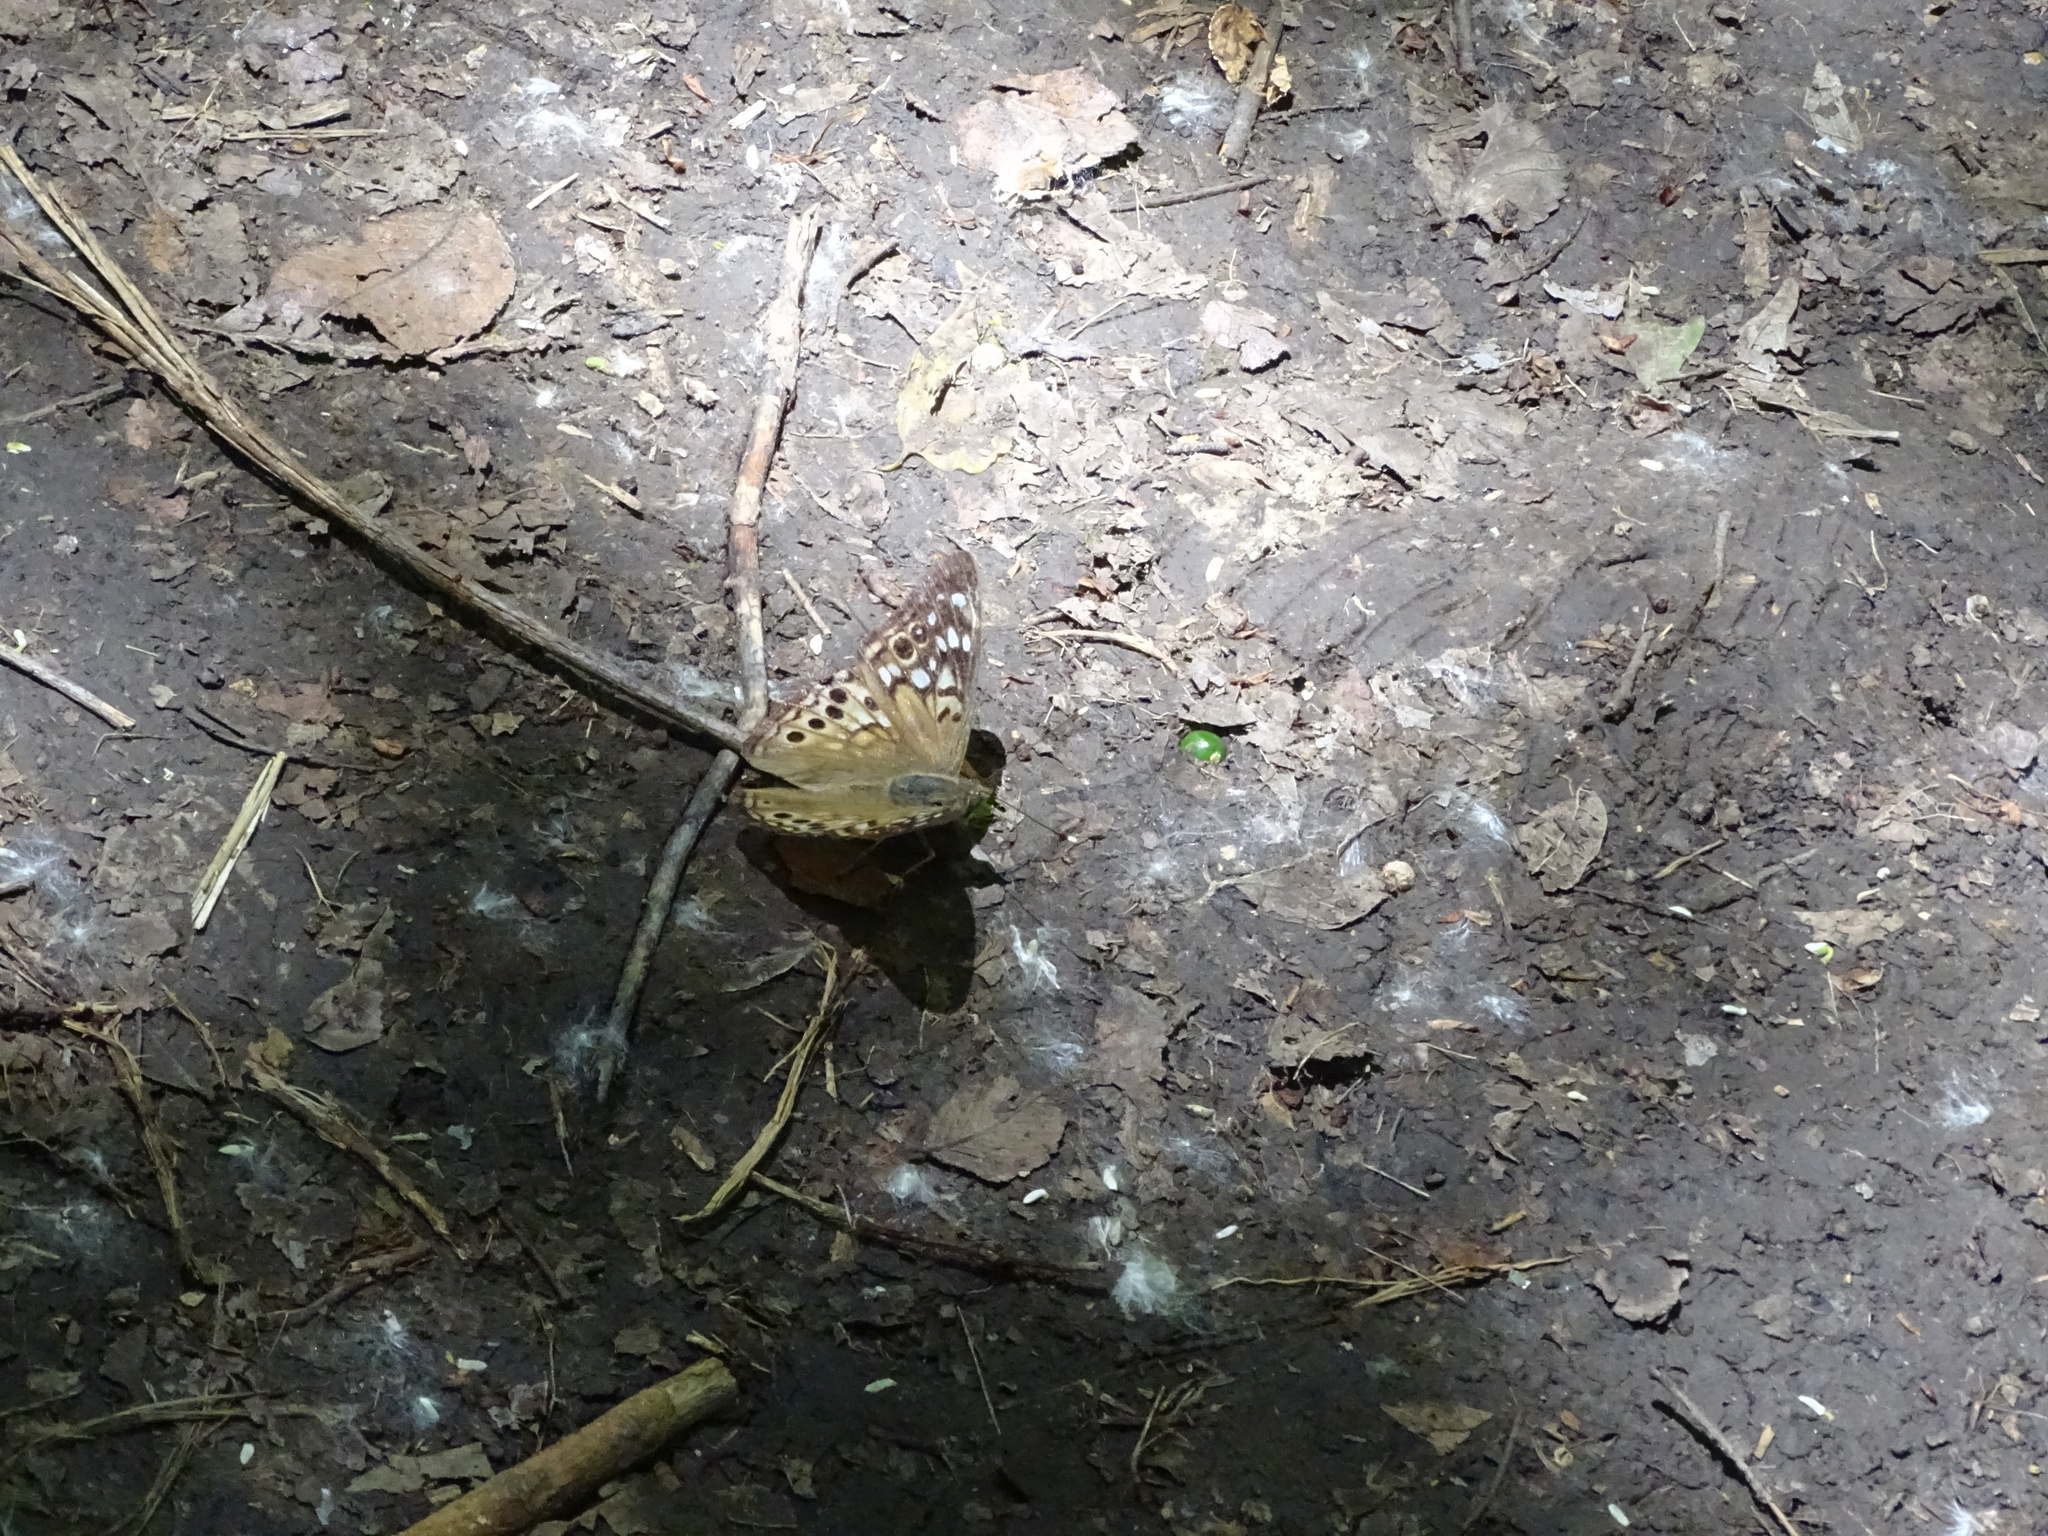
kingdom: Animalia
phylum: Arthropoda
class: Insecta
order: Lepidoptera
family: Nymphalidae
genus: Asterocampa
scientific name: Asterocampa celtis
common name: Hackberry emperor
